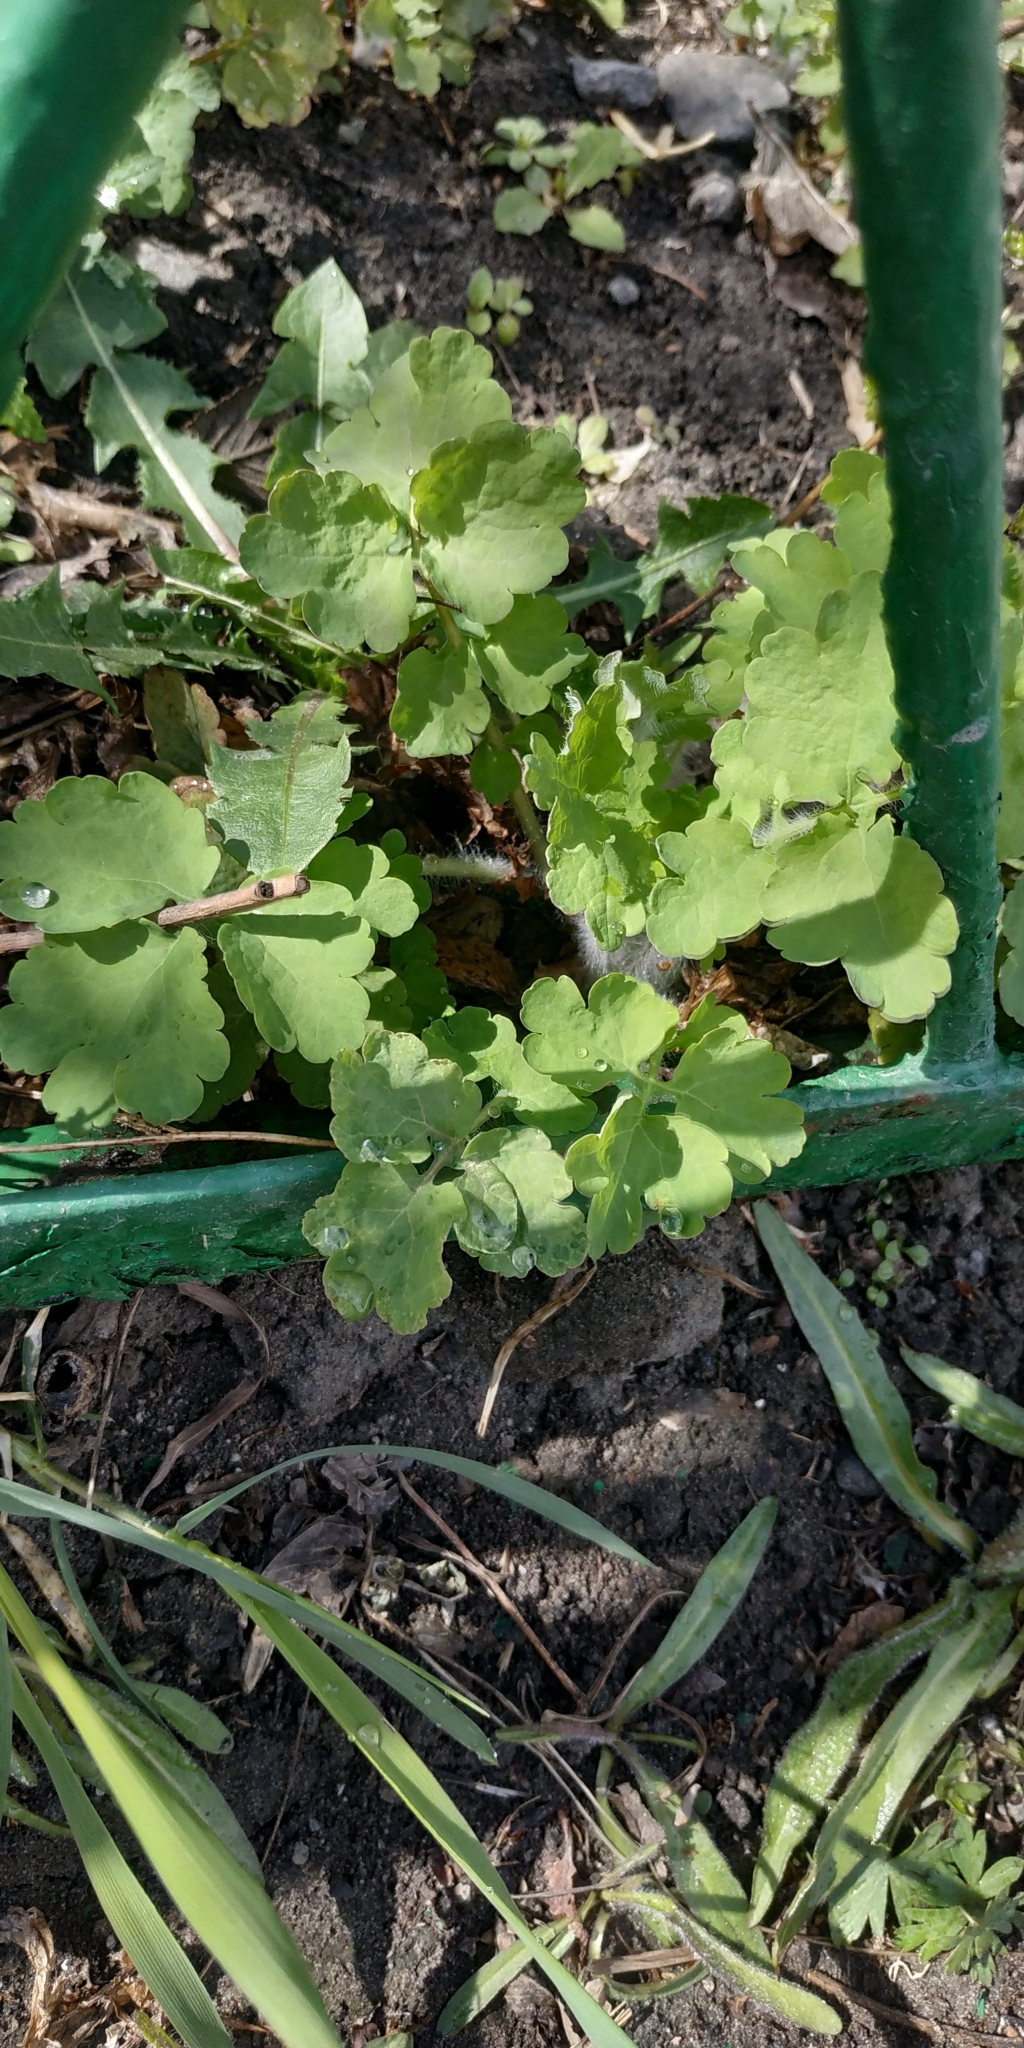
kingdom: Plantae
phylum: Tracheophyta
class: Magnoliopsida
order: Ranunculales
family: Papaveraceae
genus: Chelidonium
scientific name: Chelidonium majus
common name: Greater celandine
